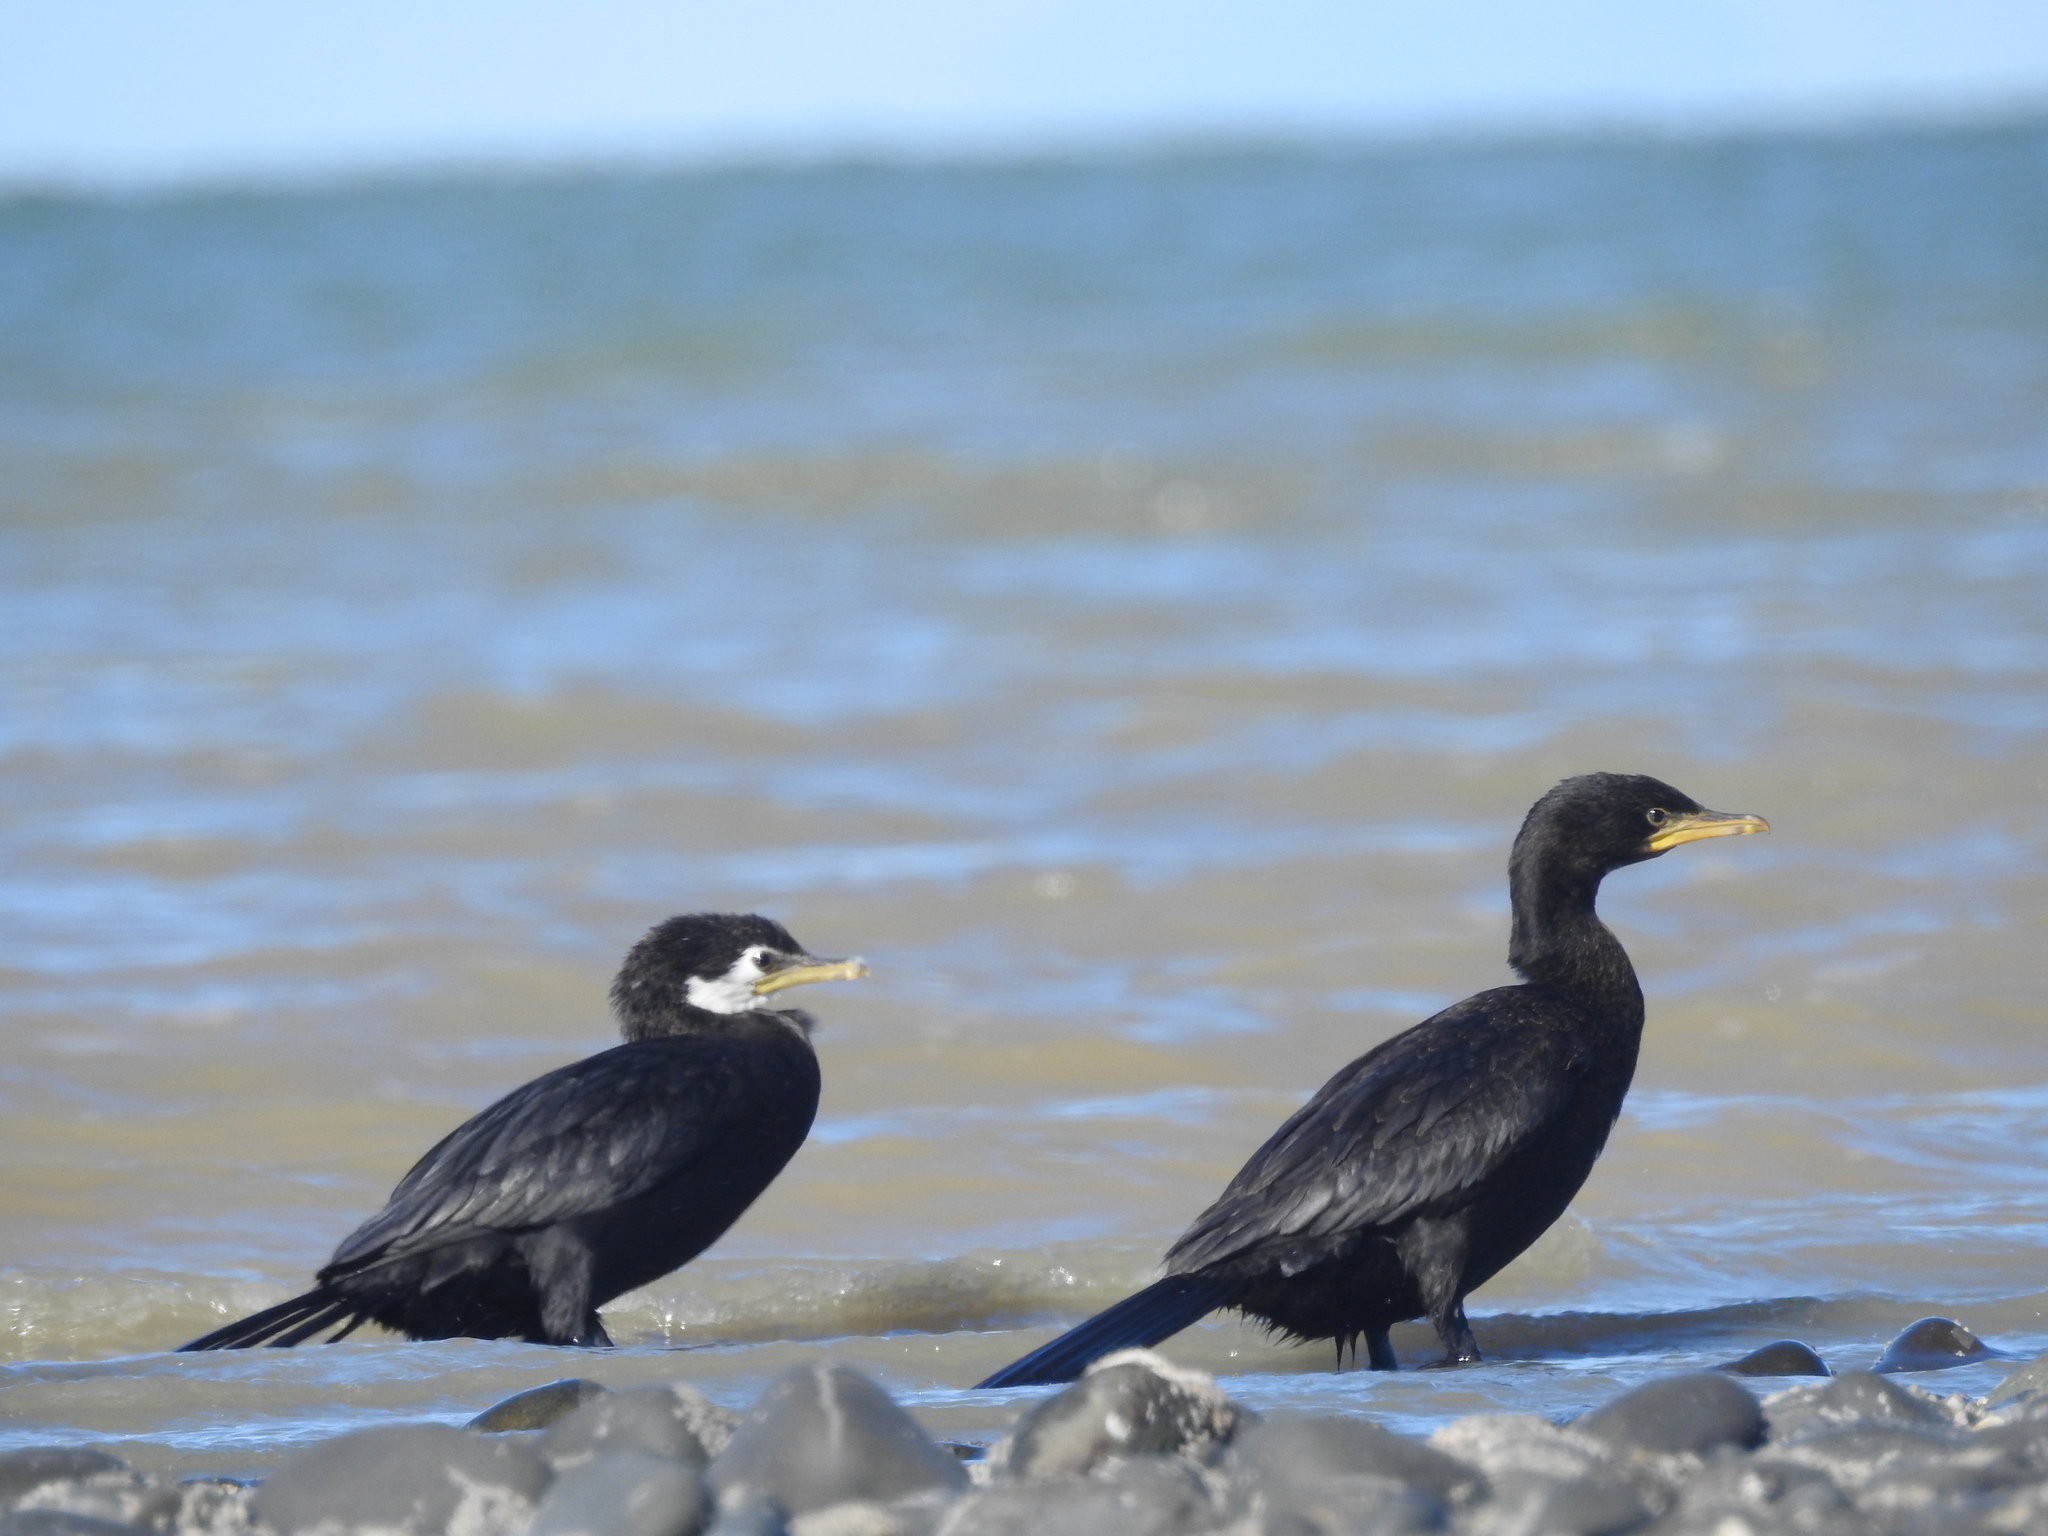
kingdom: Animalia
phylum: Chordata
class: Aves
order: Suliformes
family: Phalacrocoracidae
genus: Microcarbo
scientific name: Microcarbo melanoleucos
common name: Little pied cormorant
